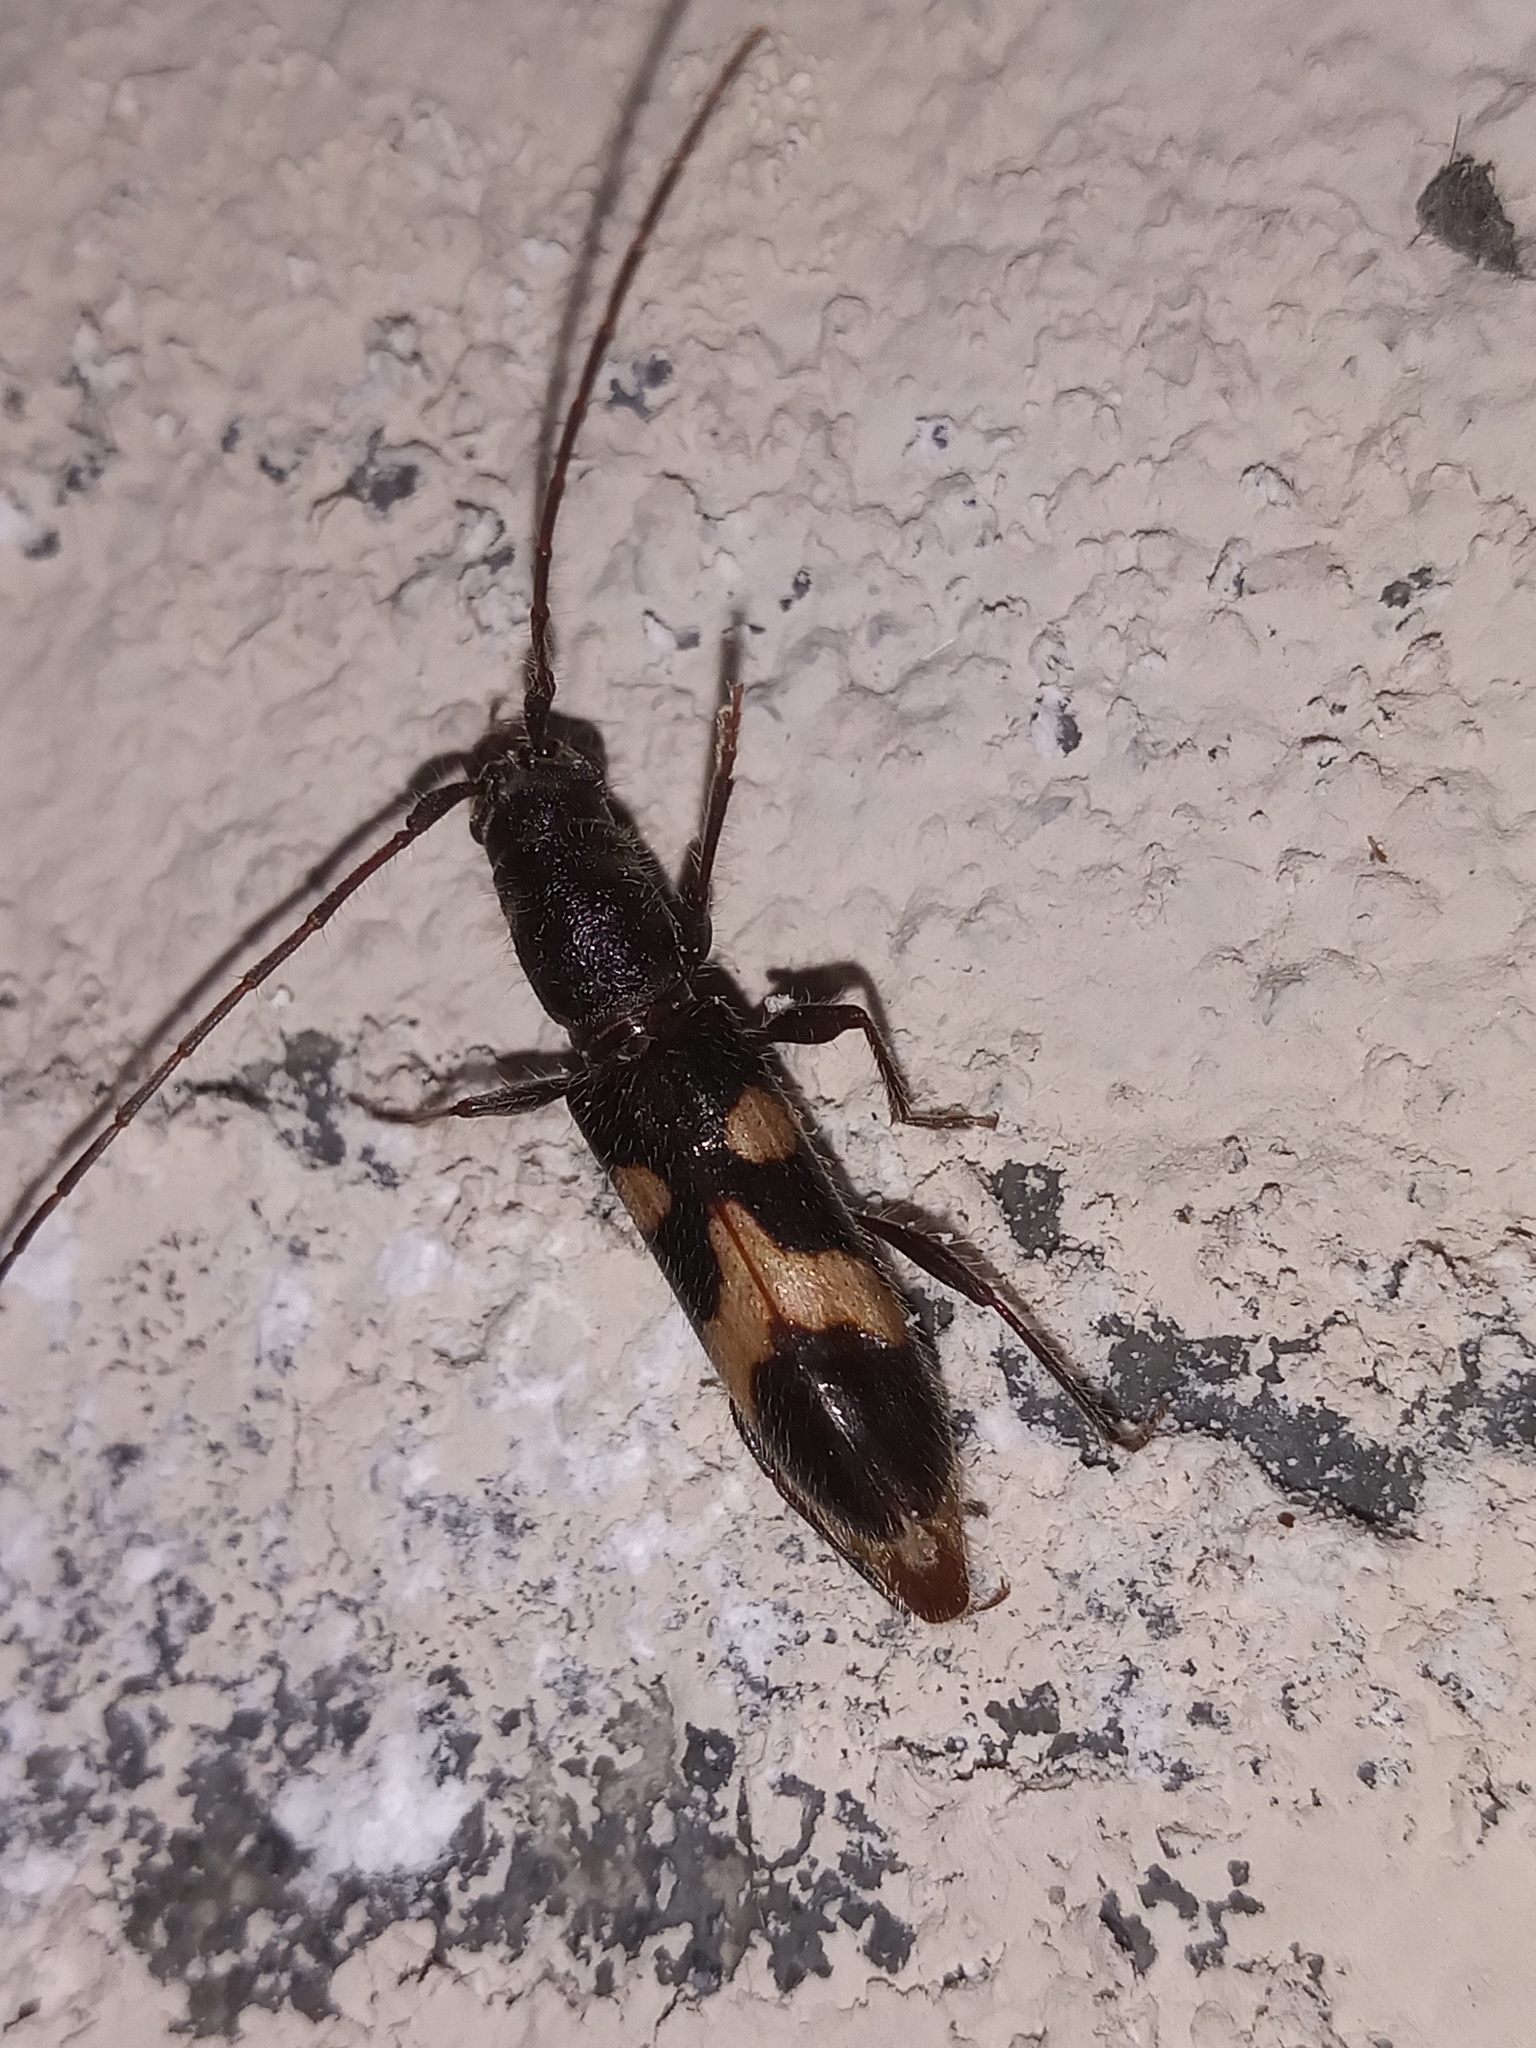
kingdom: Animalia
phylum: Arthropoda
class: Insecta
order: Coleoptera
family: Cerambycidae
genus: Heterachthes
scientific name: Heterachthes nobilis
